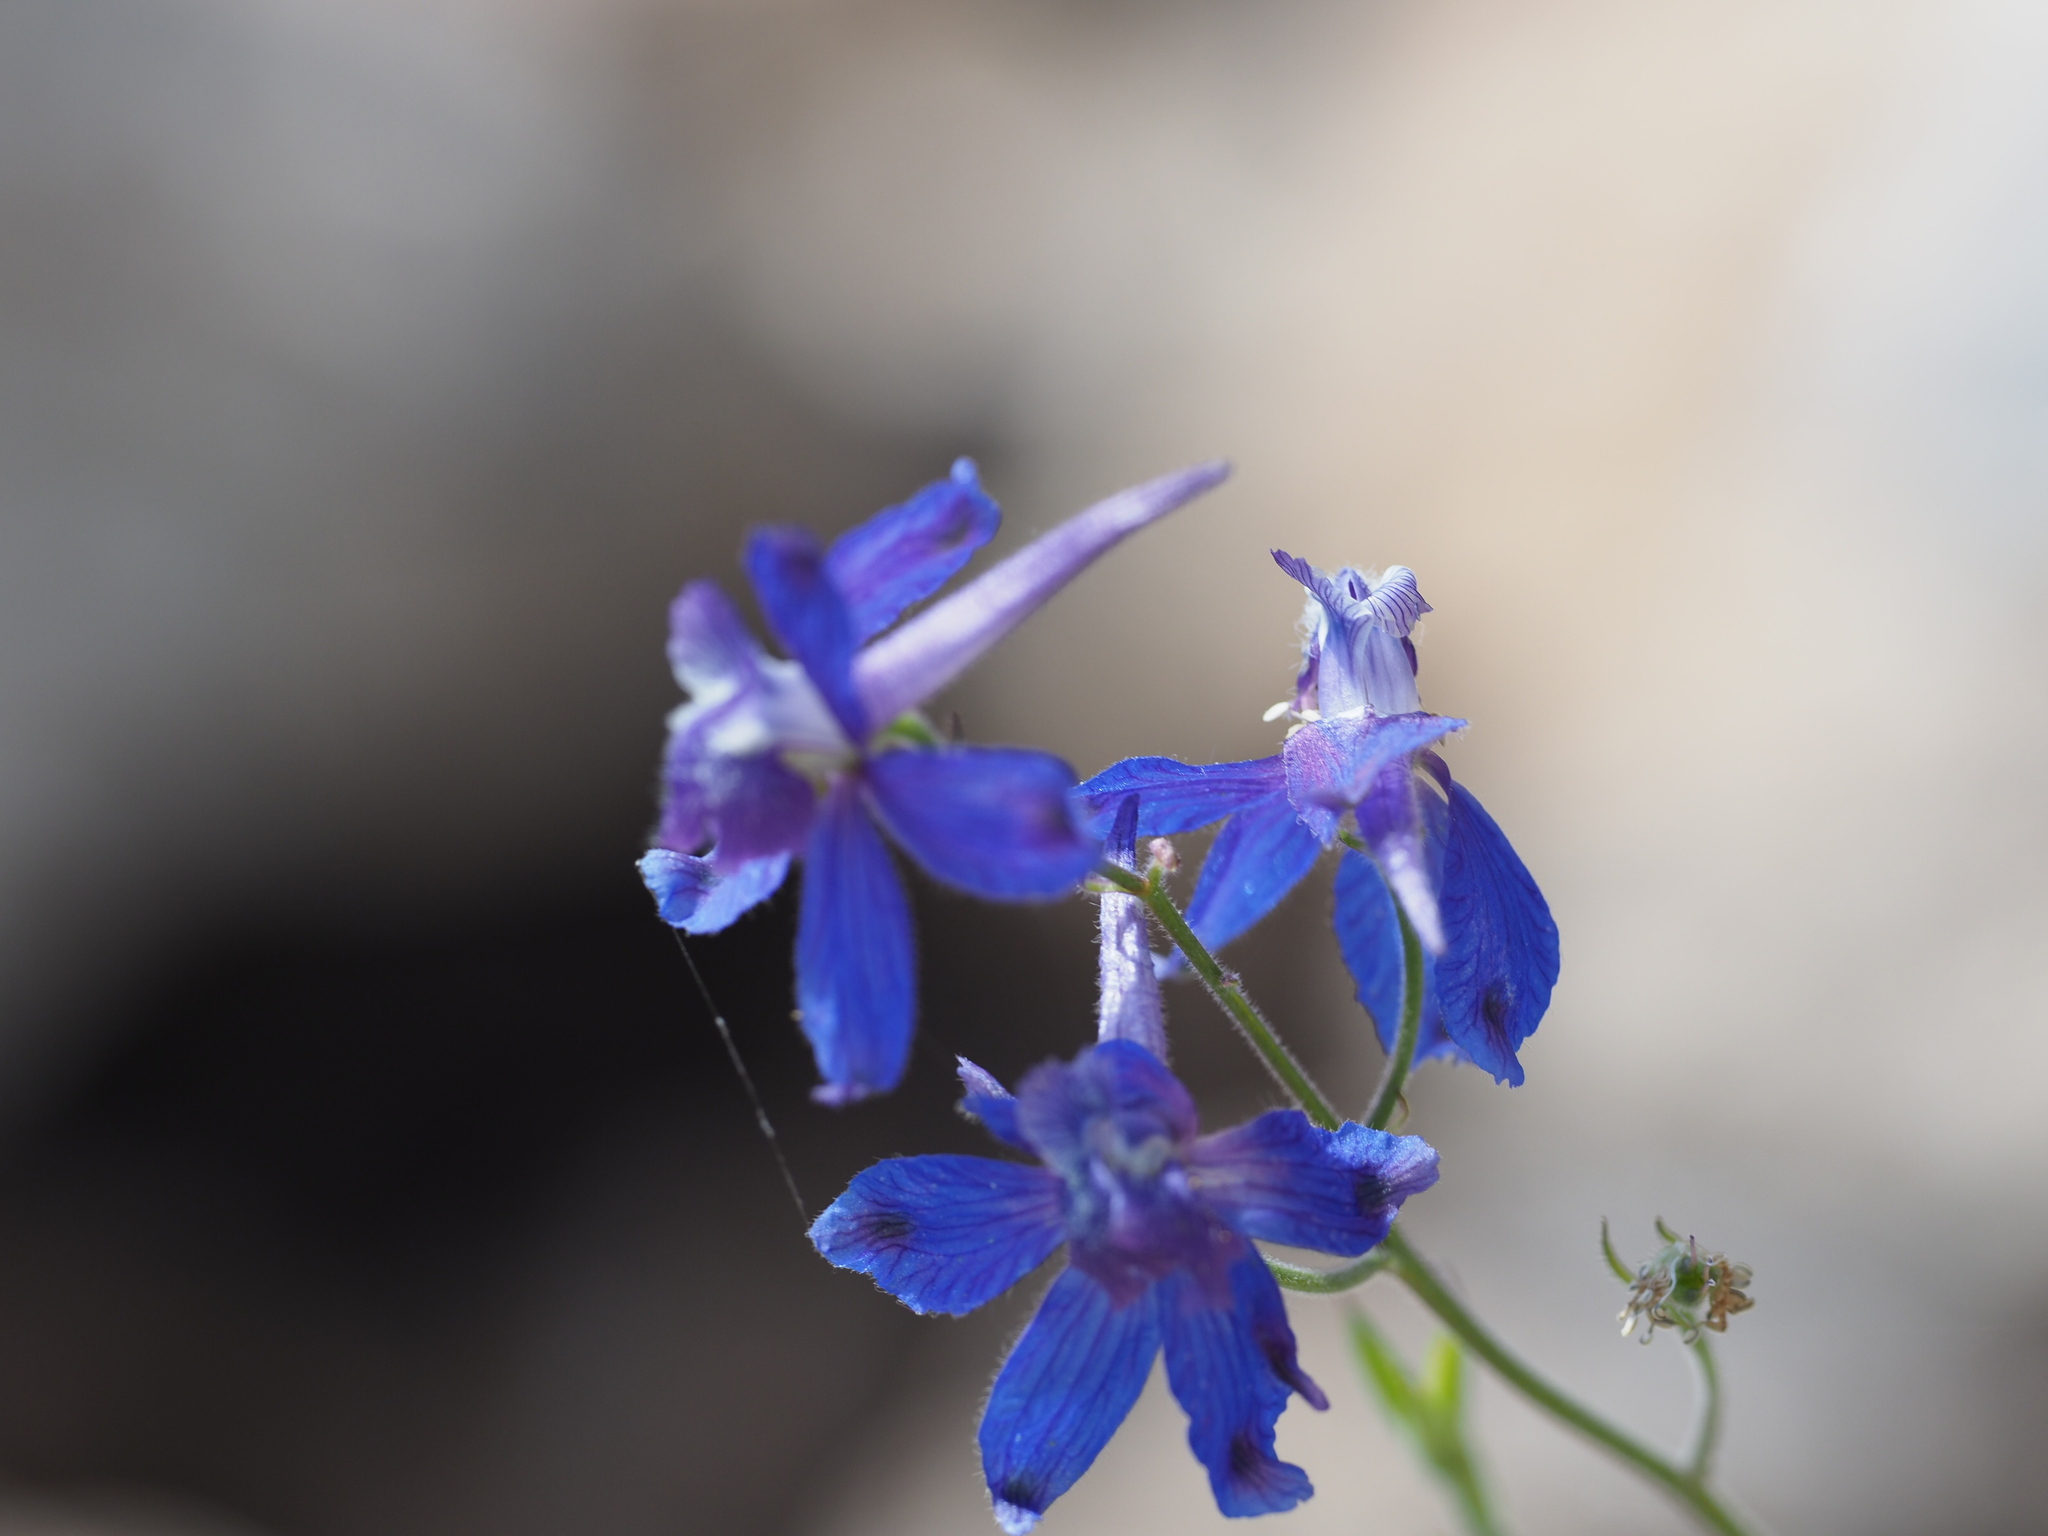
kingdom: Plantae
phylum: Tracheophyta
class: Magnoliopsida
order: Ranunculales
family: Ranunculaceae
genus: Delphinium
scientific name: Delphinium nuttallianum
